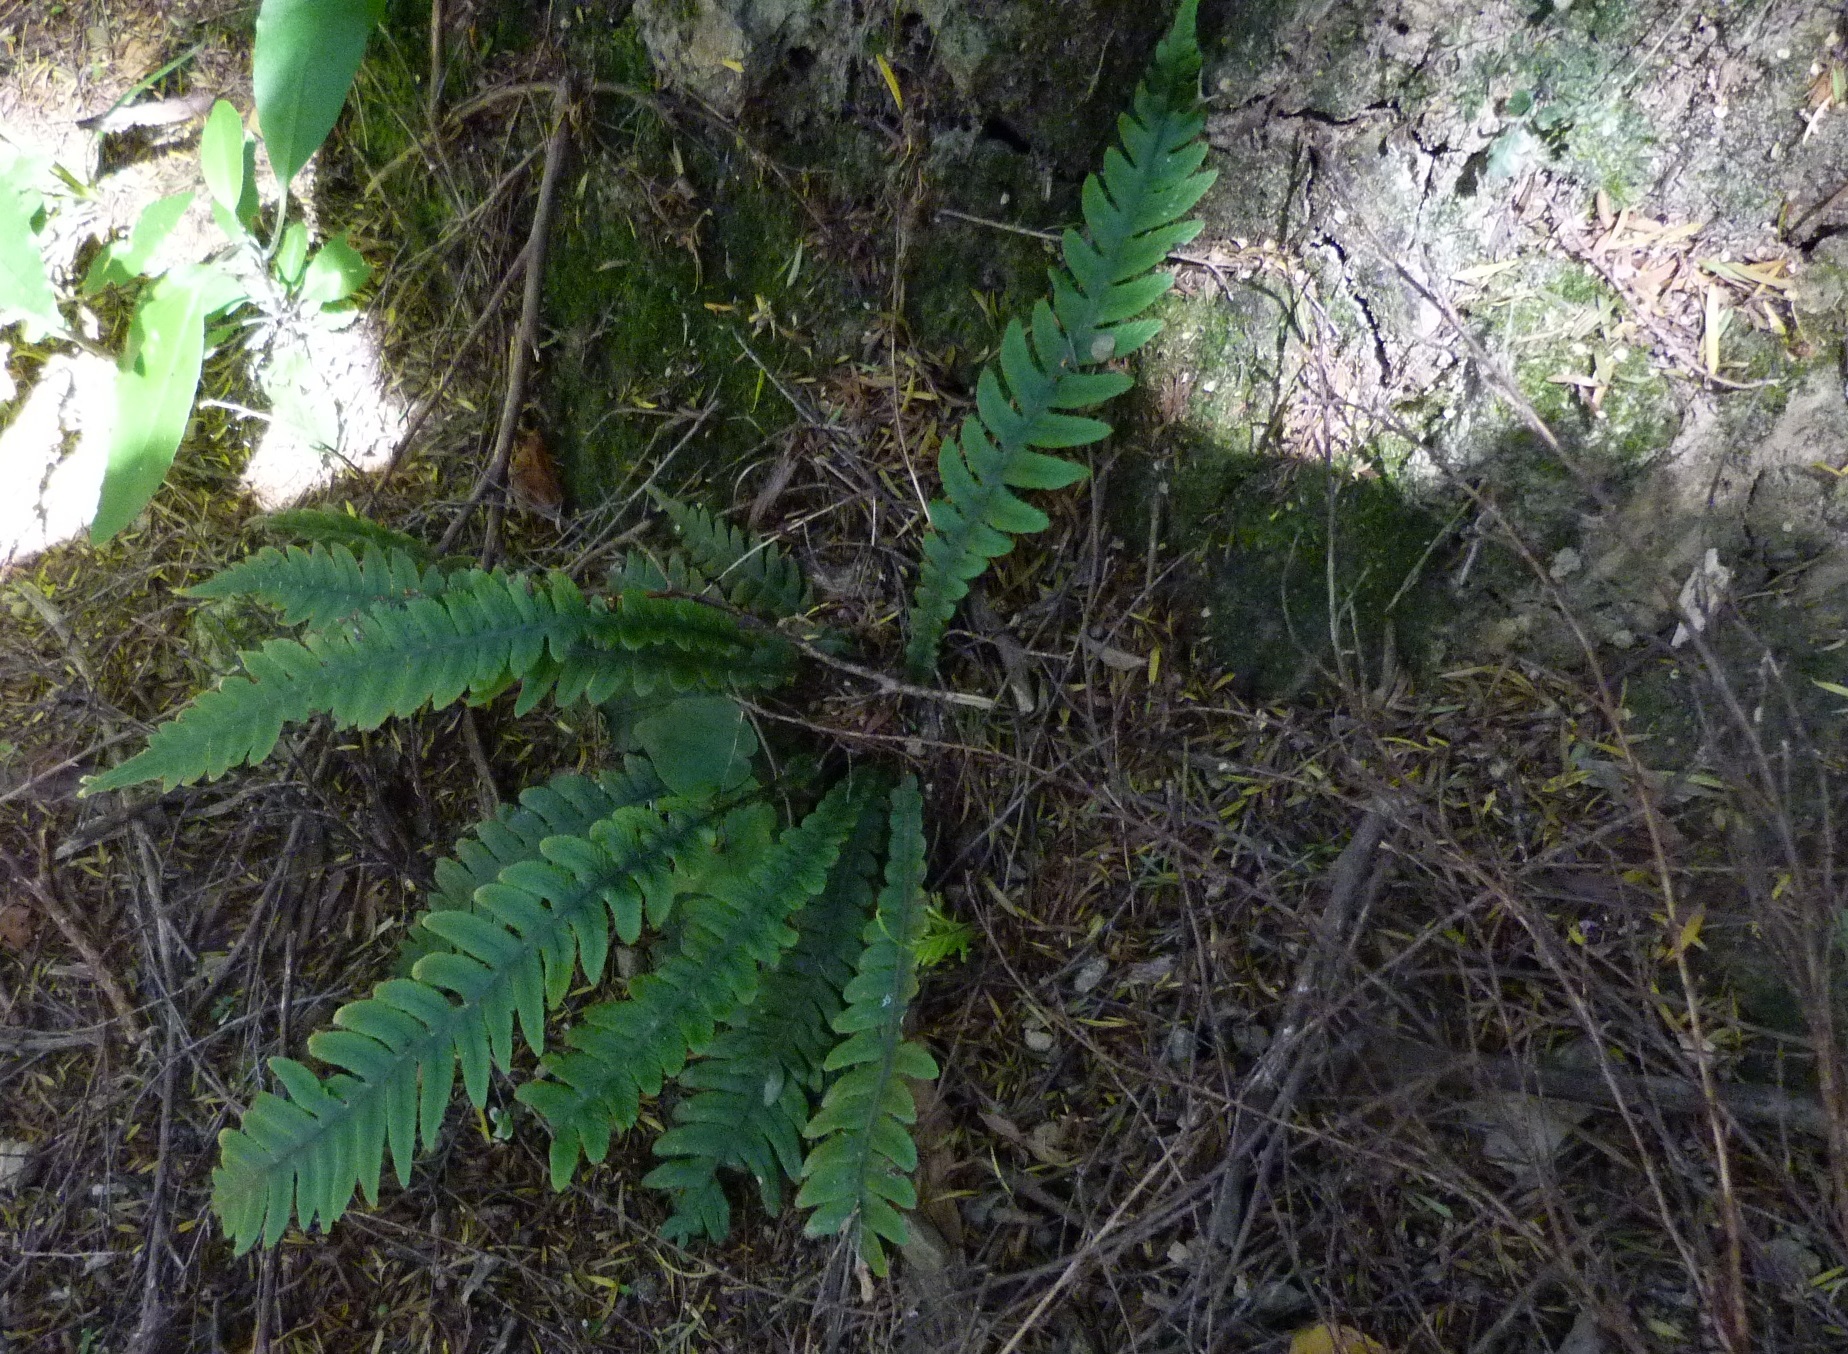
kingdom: Plantae
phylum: Tracheophyta
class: Polypodiopsida
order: Polypodiales
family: Blechnaceae
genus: Austroblechnum
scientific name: Austroblechnum lanceolatum
